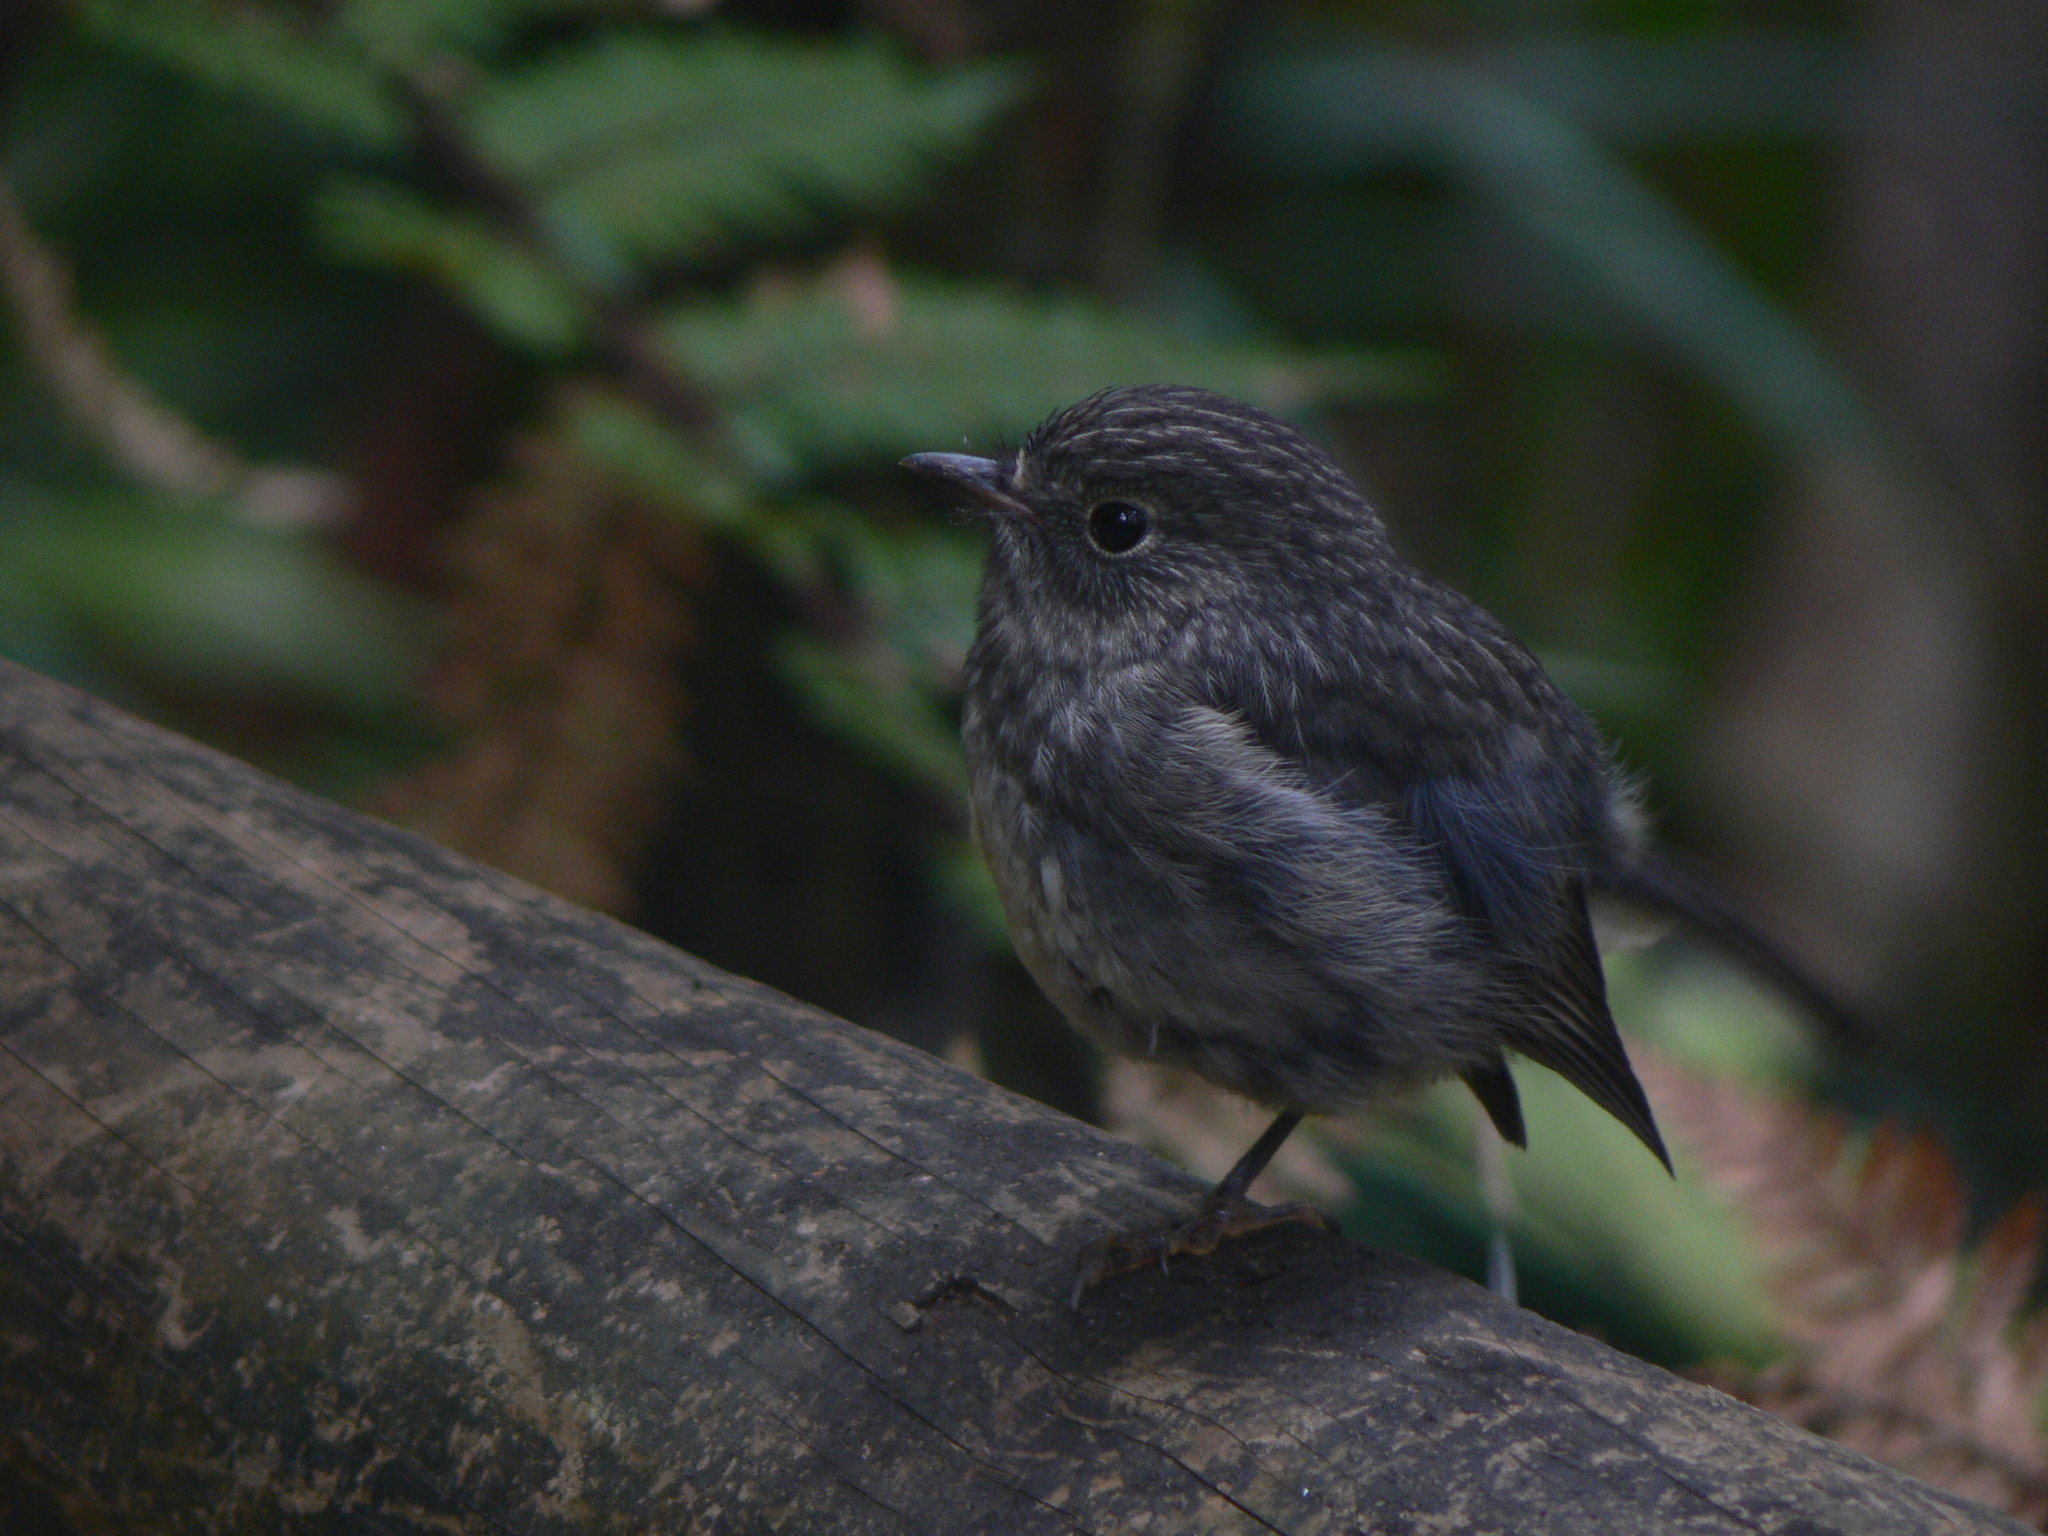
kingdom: Animalia
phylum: Chordata
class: Aves
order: Passeriformes
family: Petroicidae
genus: Petroica
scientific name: Petroica australis
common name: New zealand robin
